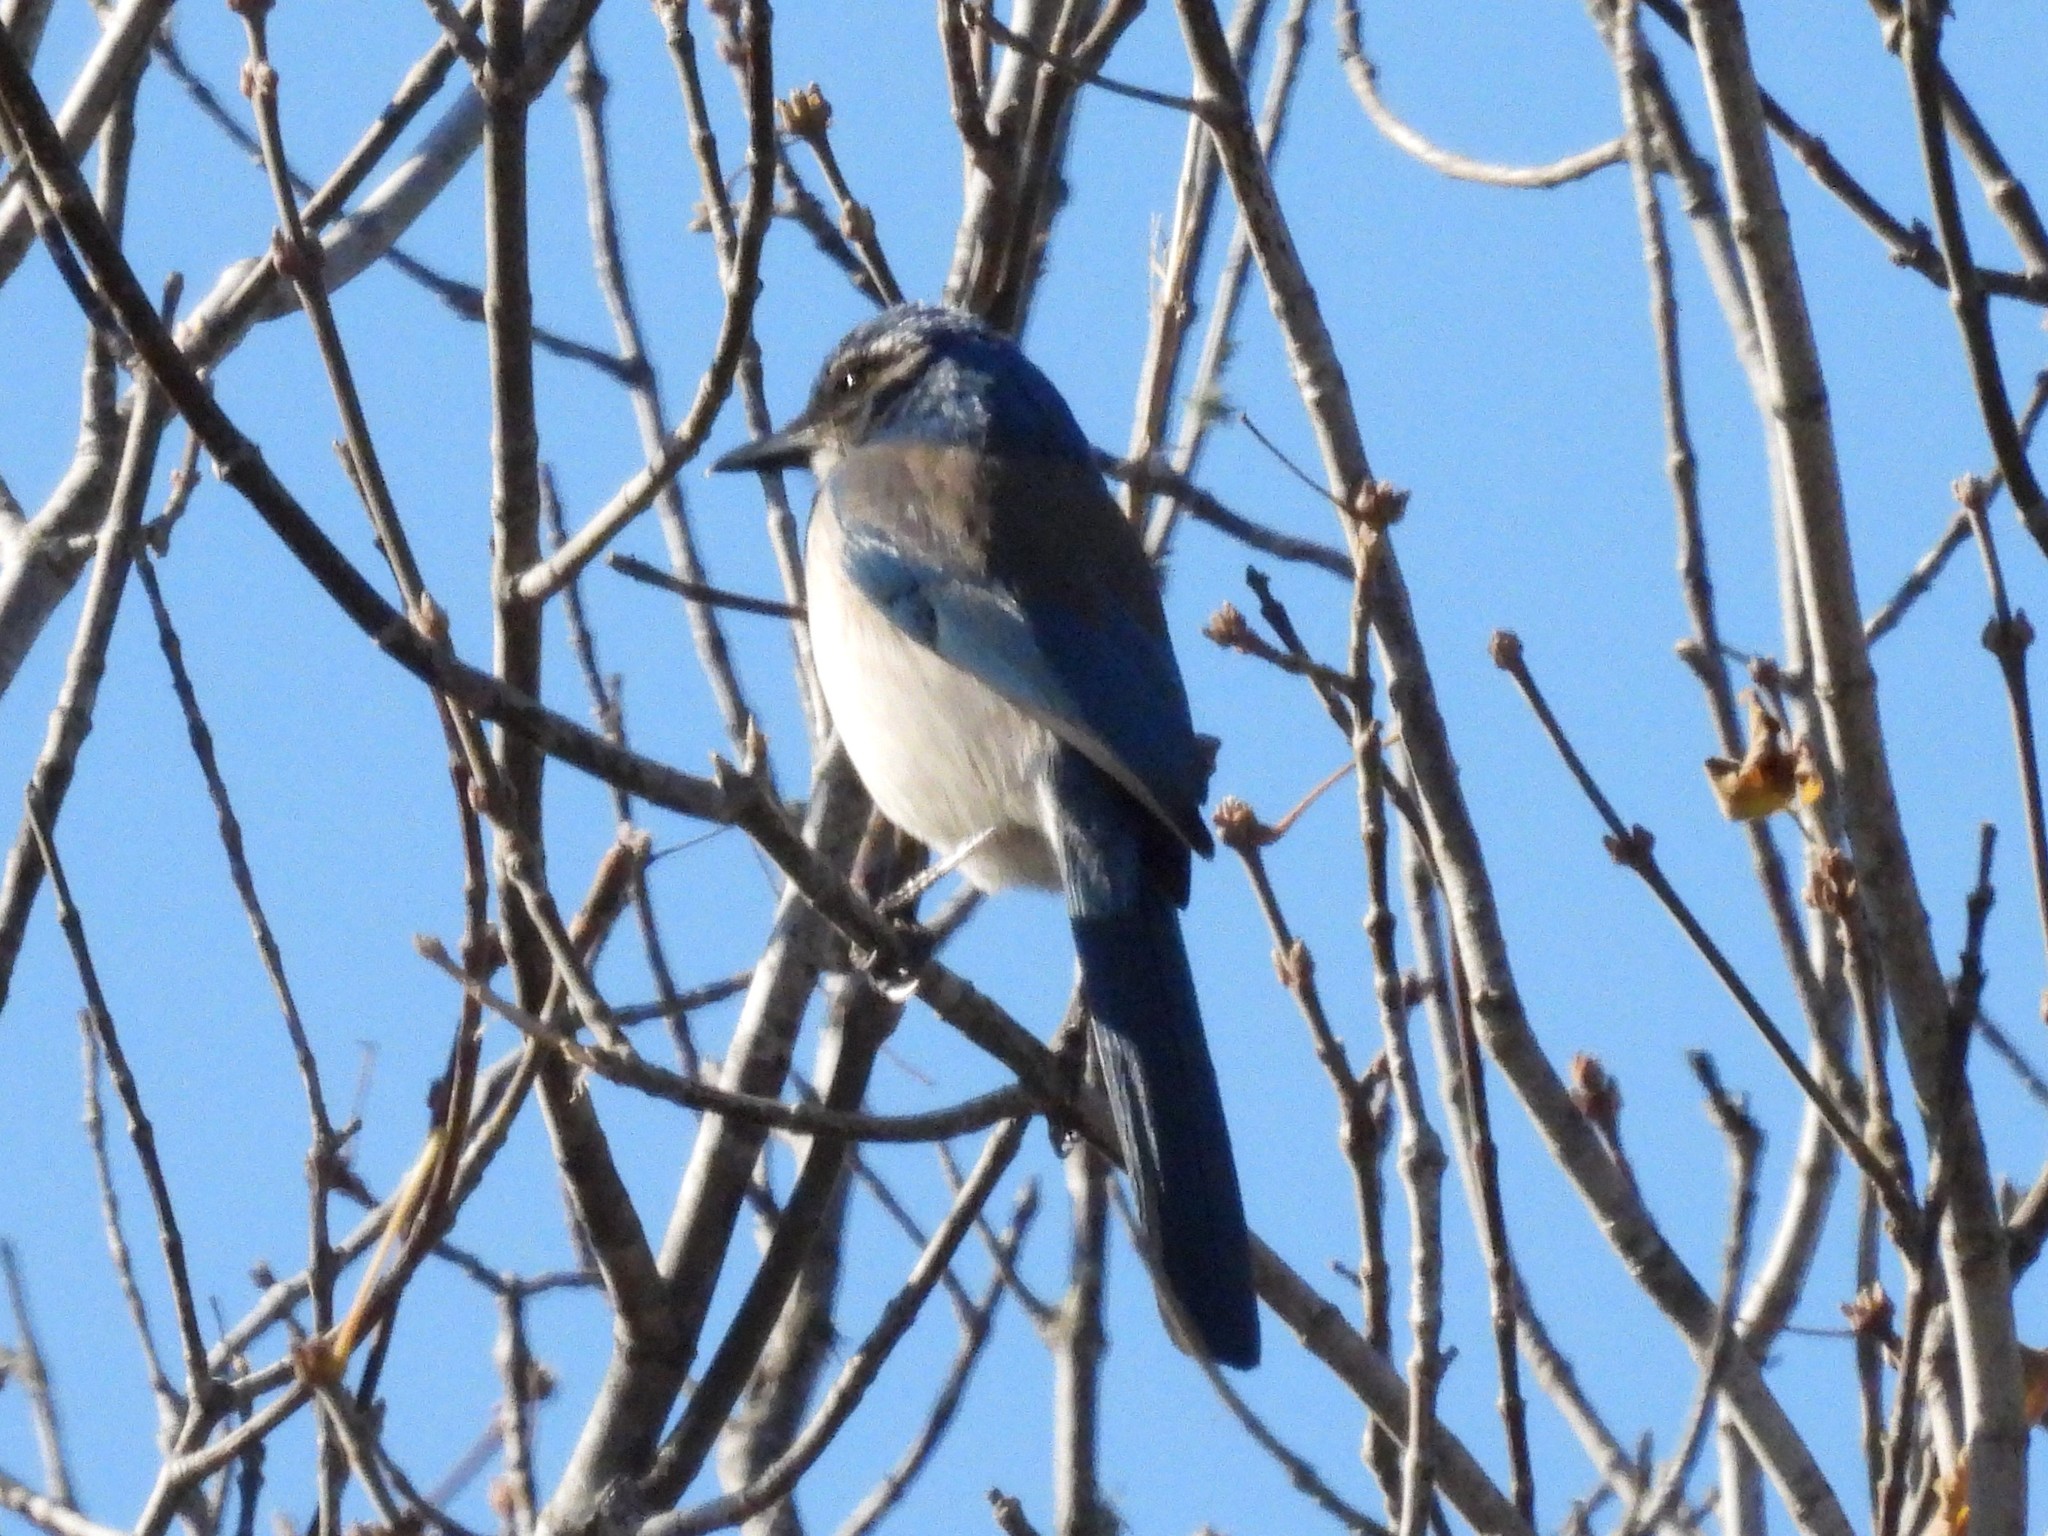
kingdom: Animalia
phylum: Chordata
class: Aves
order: Passeriformes
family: Corvidae
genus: Aphelocoma
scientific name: Aphelocoma californica
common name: California scrub-jay
